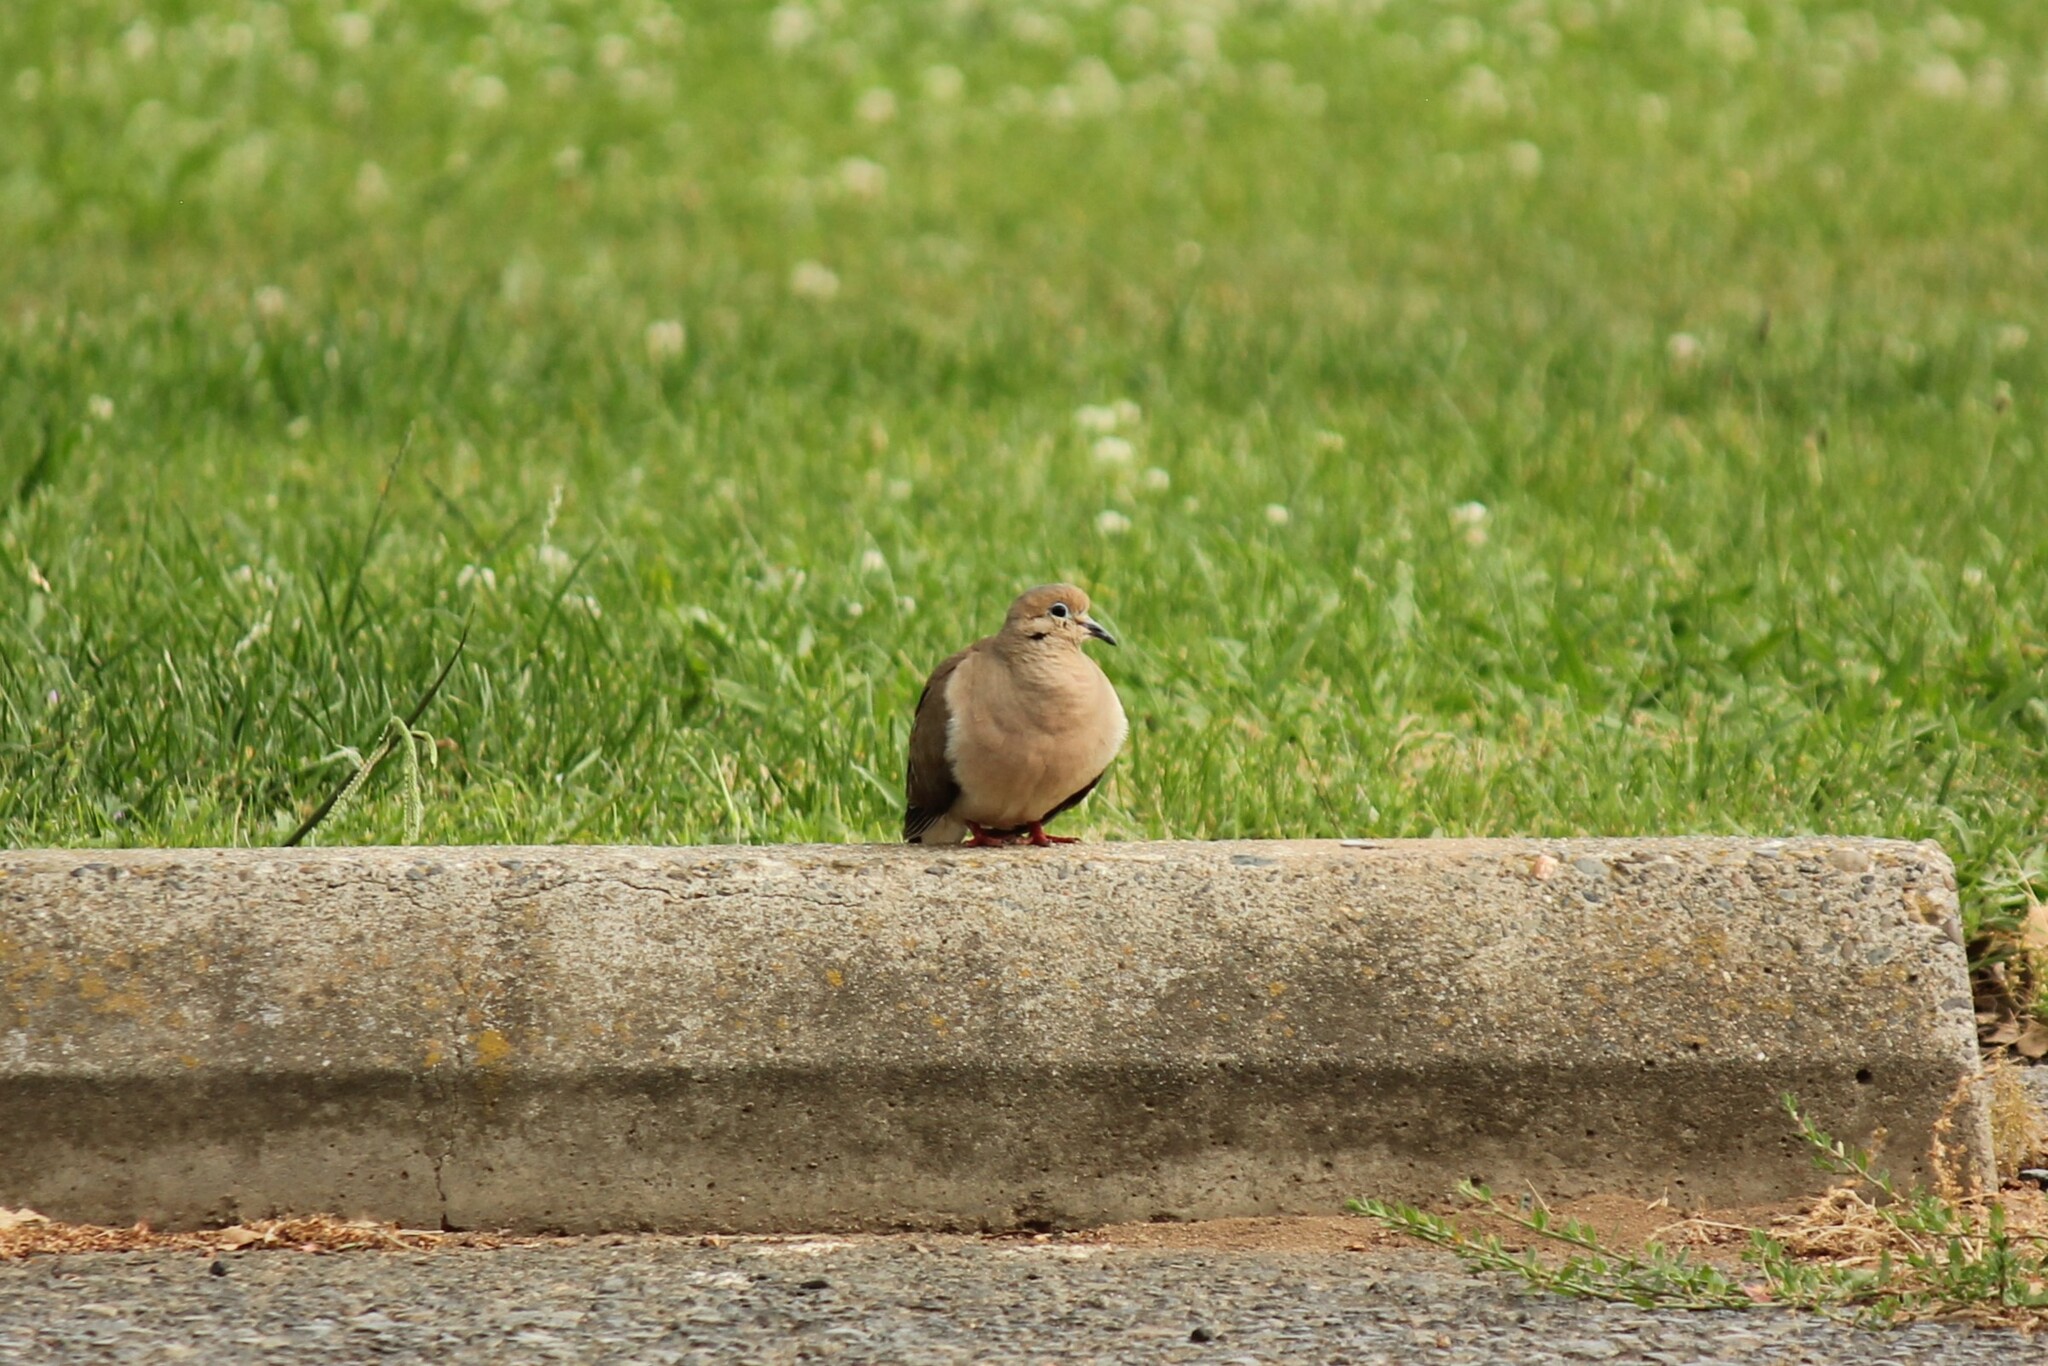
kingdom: Animalia
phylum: Chordata
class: Aves
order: Columbiformes
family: Columbidae
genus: Zenaida
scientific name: Zenaida macroura
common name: Mourning dove
